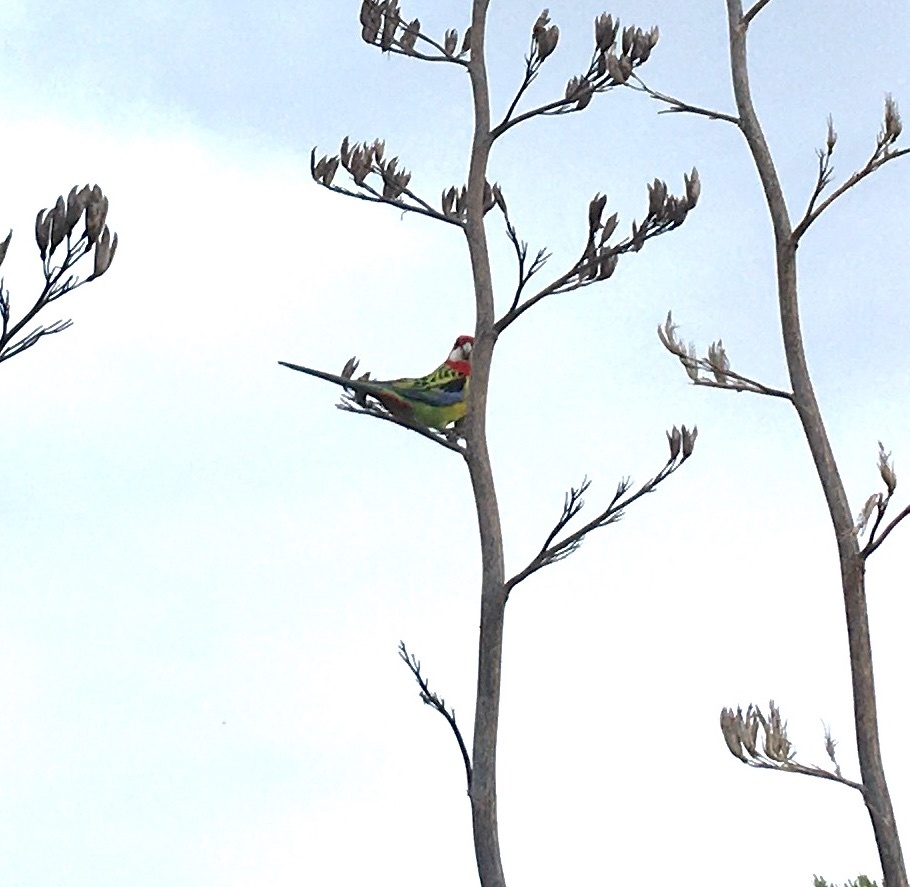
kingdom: Animalia
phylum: Chordata
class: Aves
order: Psittaciformes
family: Psittacidae
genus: Platycercus
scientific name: Platycercus eximius
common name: Eastern rosella
